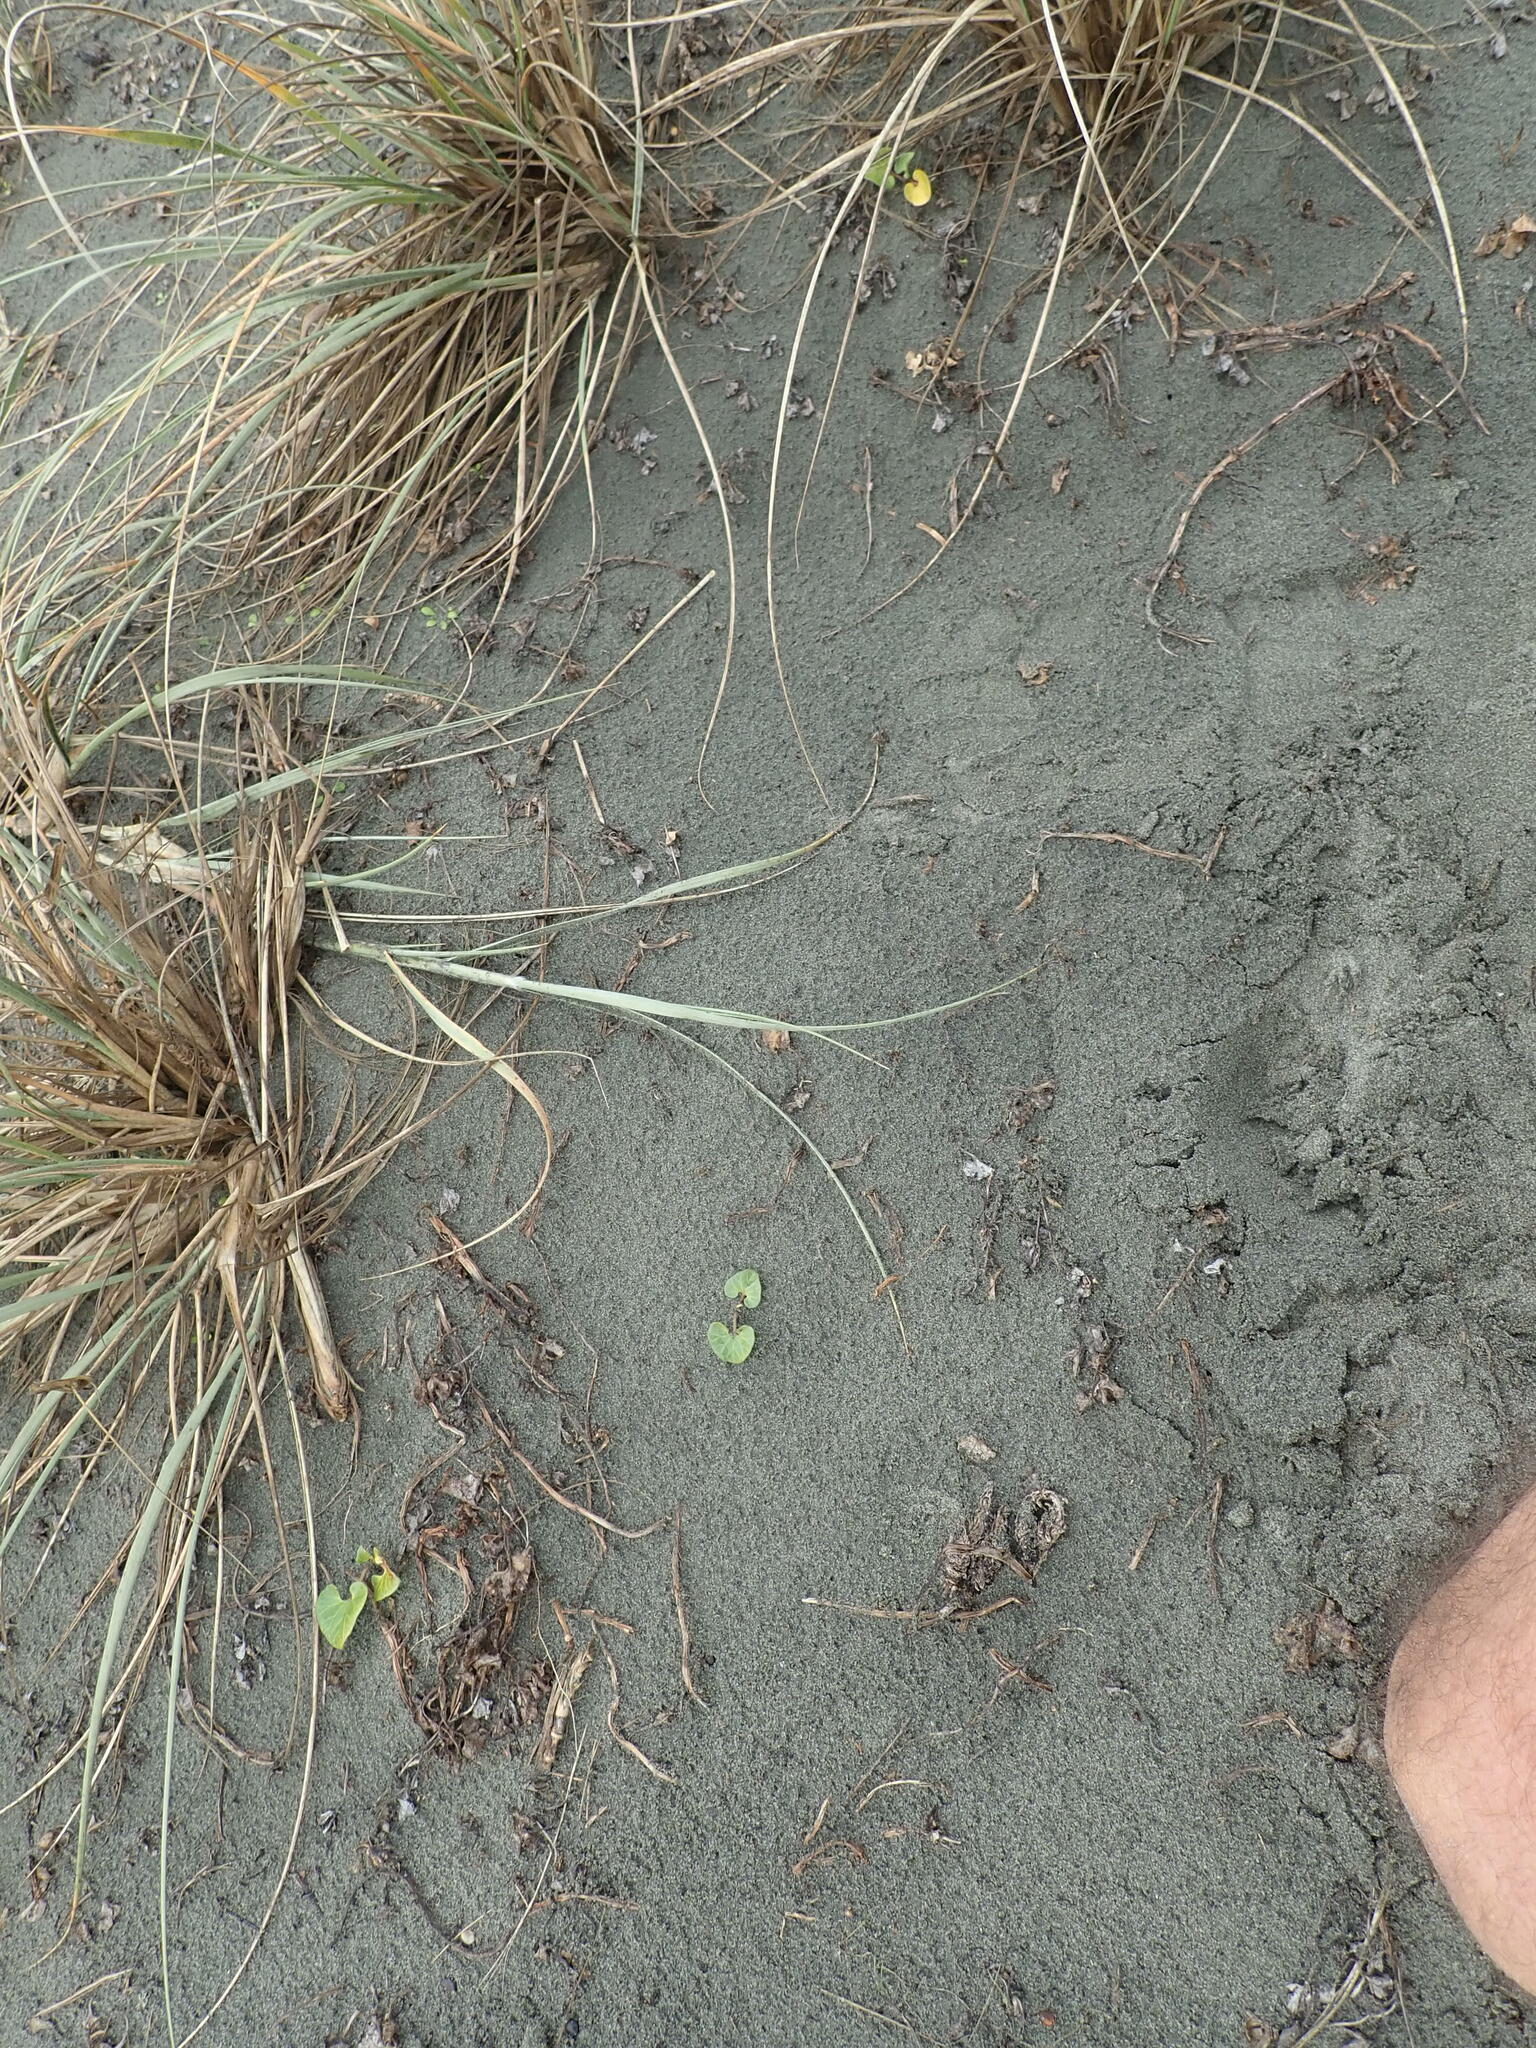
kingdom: Plantae
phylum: Tracheophyta
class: Magnoliopsida
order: Solanales
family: Convolvulaceae
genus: Calystegia
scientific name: Calystegia soldanella
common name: Sea bindweed
